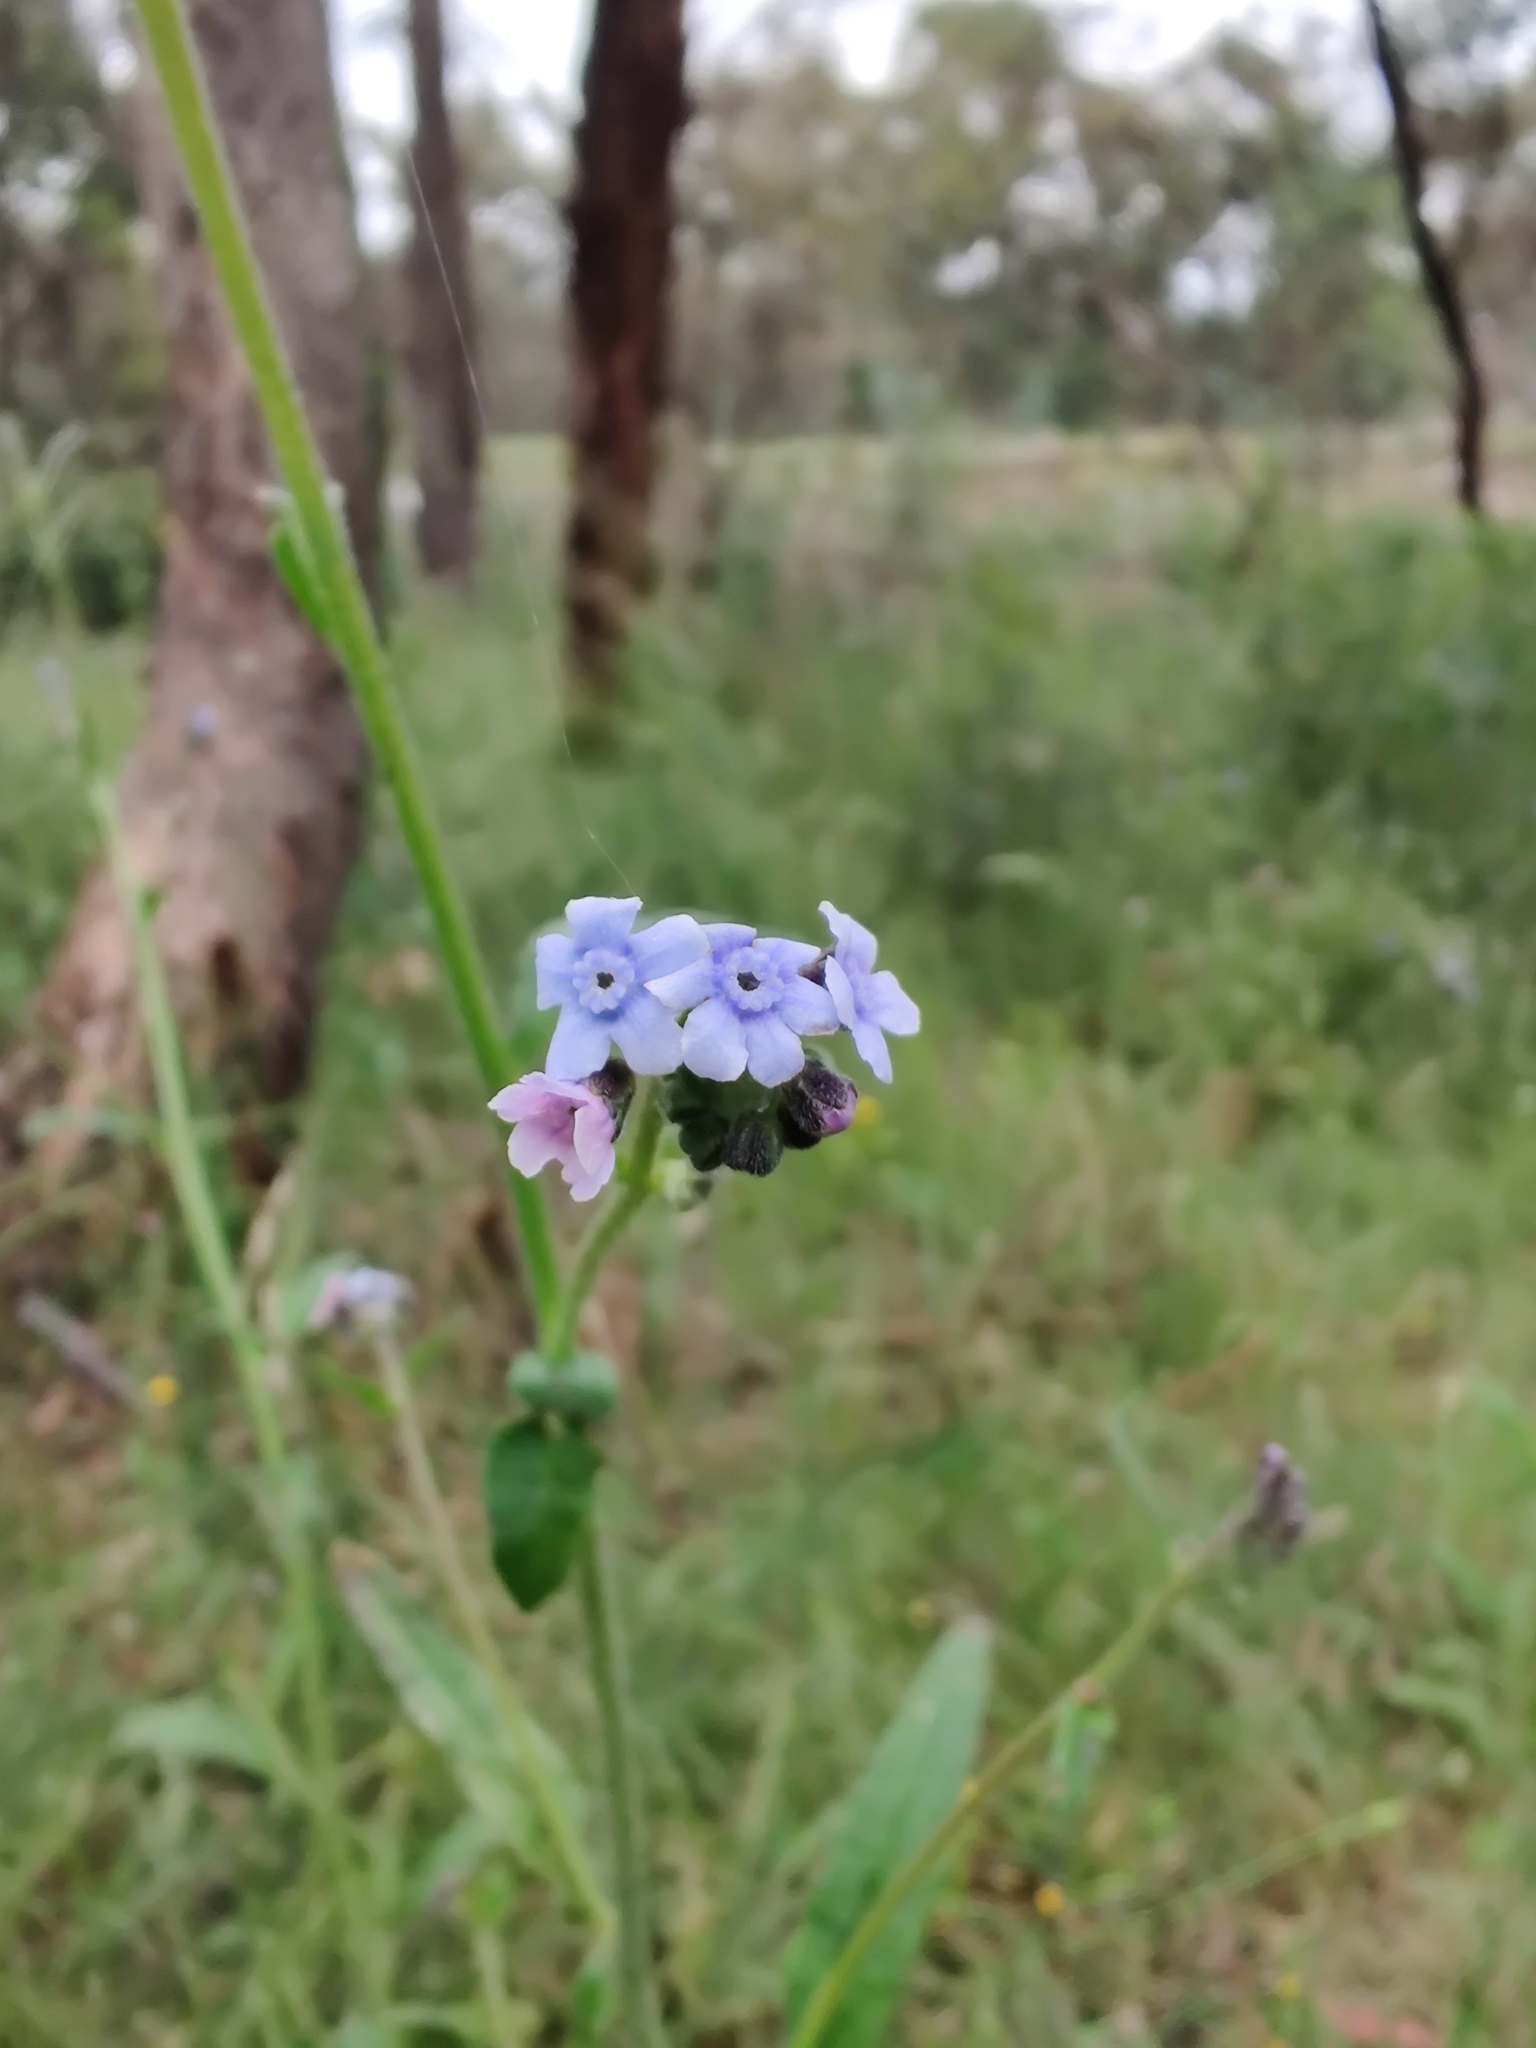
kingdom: Plantae
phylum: Tracheophyta
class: Magnoliopsida
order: Boraginales
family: Boraginaceae
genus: Cynoglossum
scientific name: Cynoglossum australe
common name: Australian hound's-tongue
